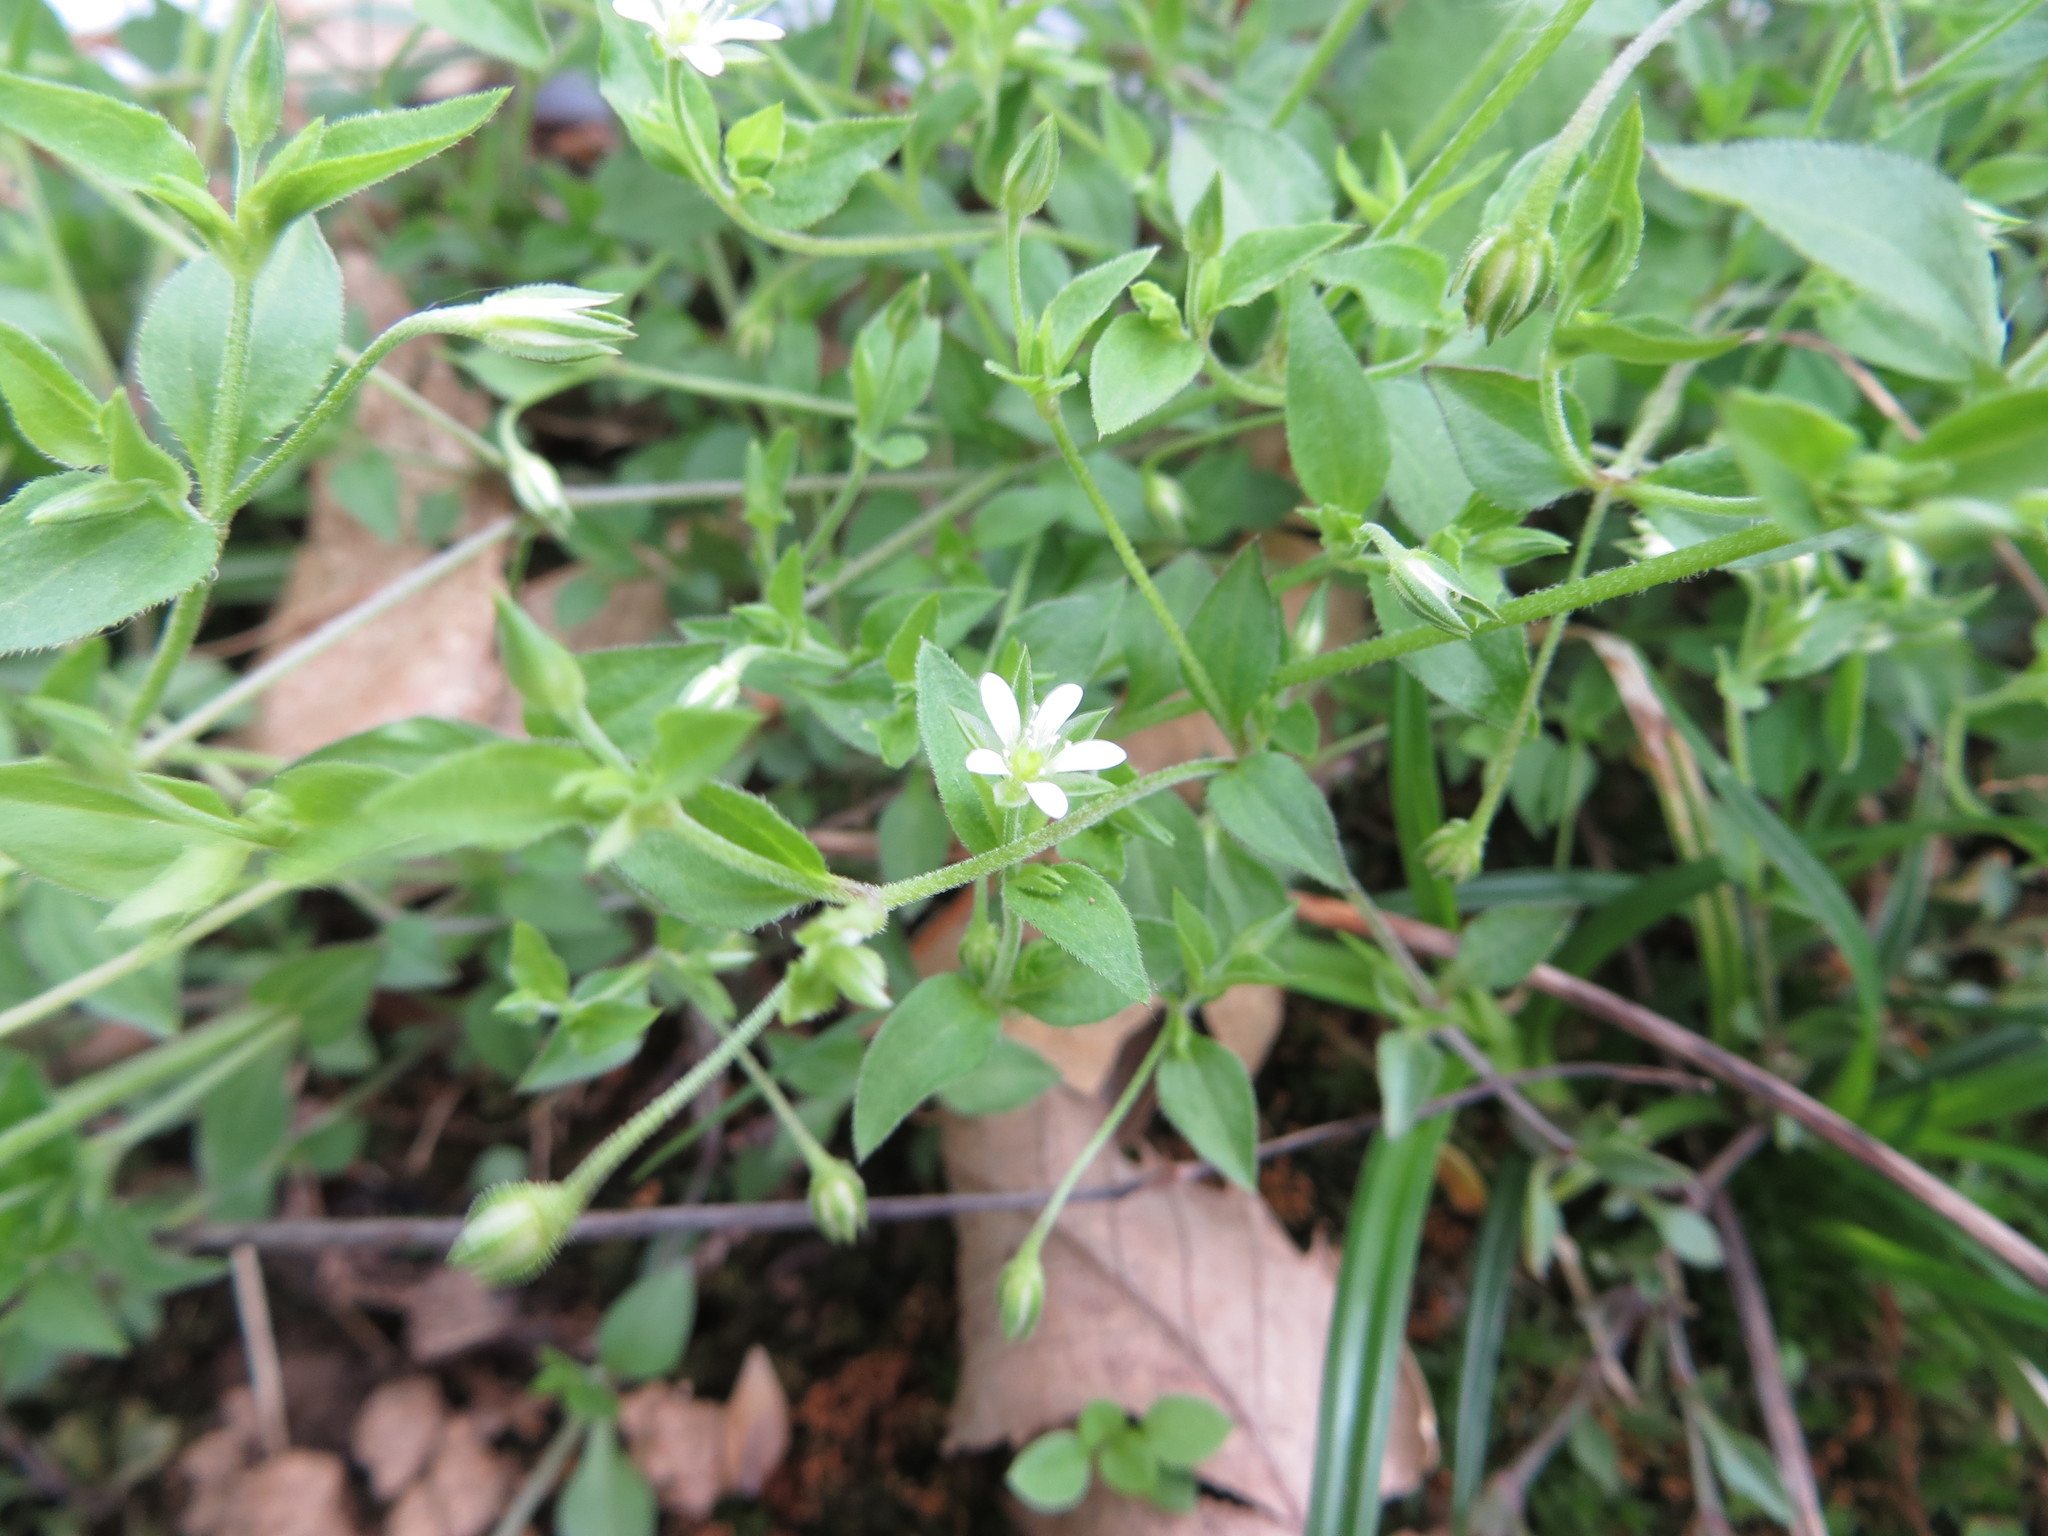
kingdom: Plantae
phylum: Tracheophyta
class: Magnoliopsida
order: Caryophyllales
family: Caryophyllaceae
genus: Moehringia
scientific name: Moehringia trinervia
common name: Three-nerved sandwort
